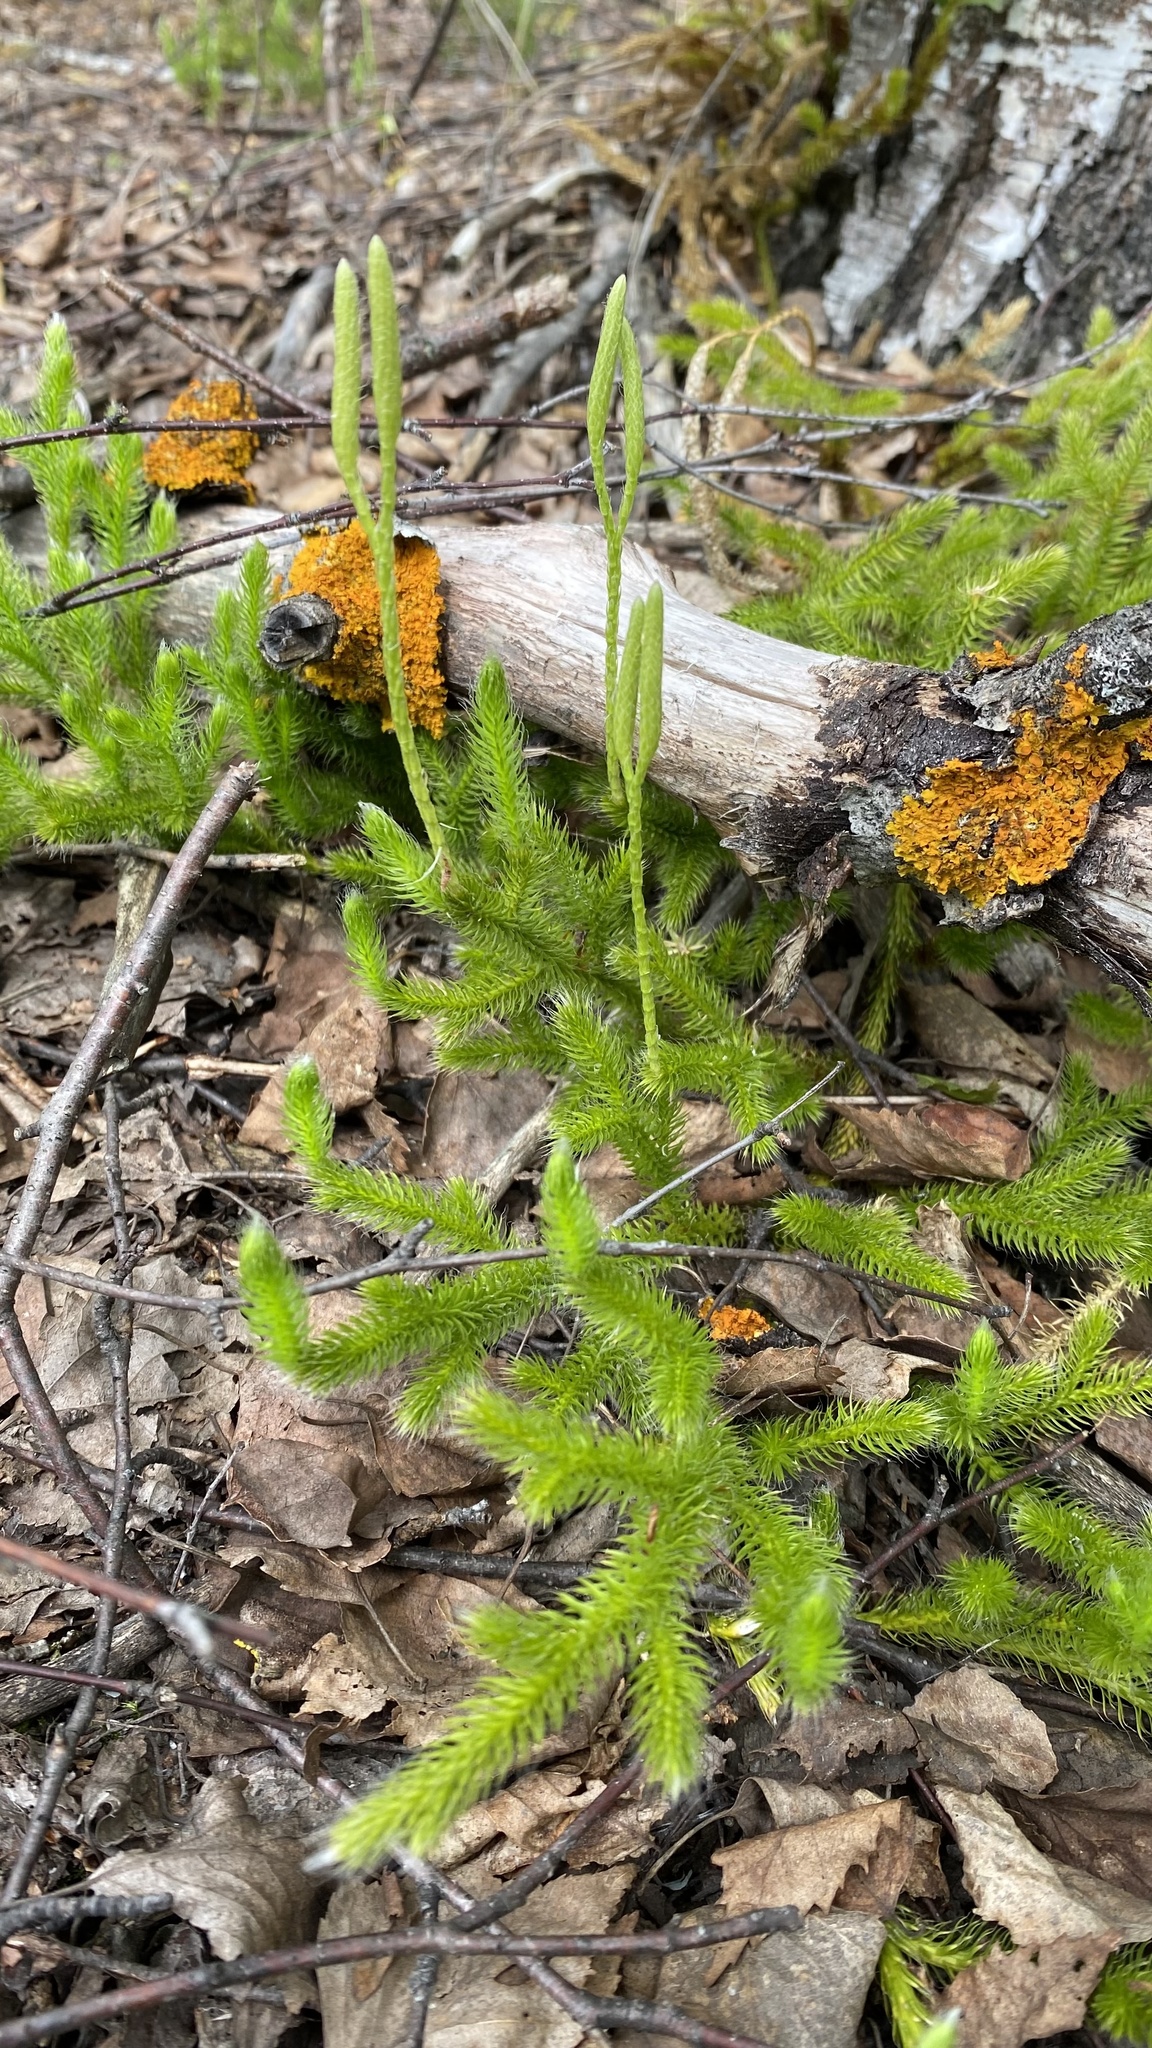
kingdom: Plantae
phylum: Tracheophyta
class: Lycopodiopsida
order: Lycopodiales
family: Lycopodiaceae
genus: Lycopodium
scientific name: Lycopodium clavatum
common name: Stag's-horn clubmoss
